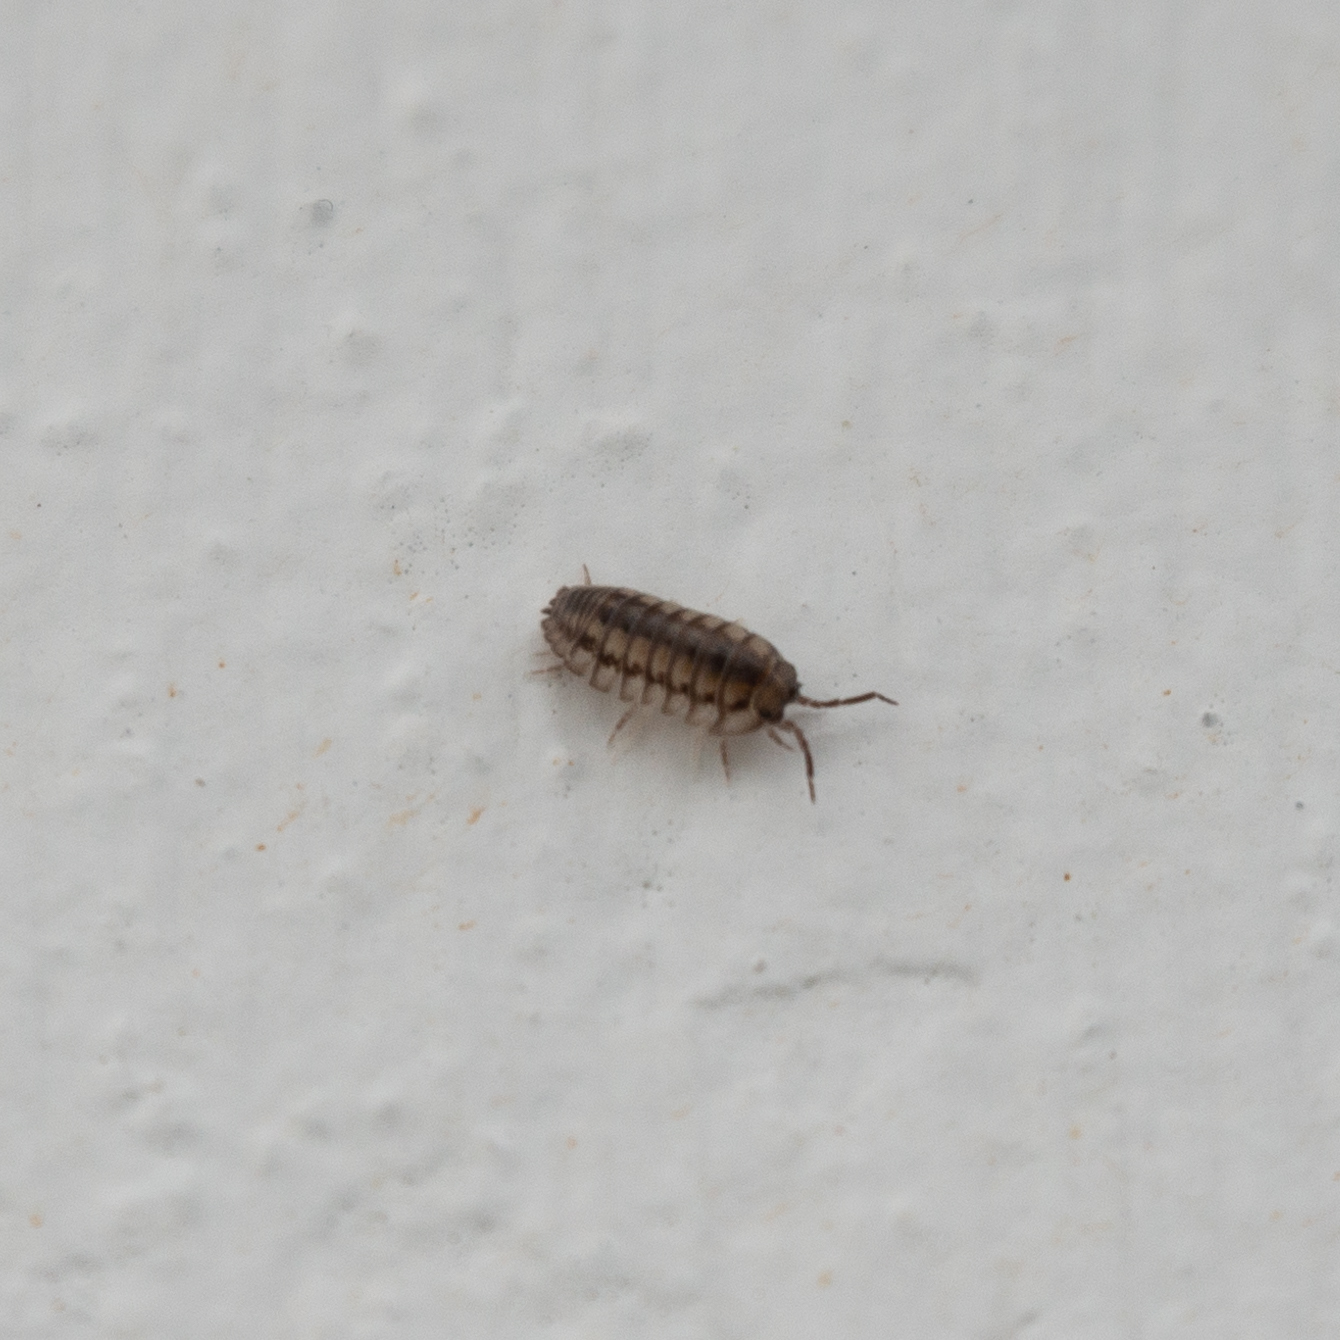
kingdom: Animalia
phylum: Arthropoda
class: Malacostraca
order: Isopoda
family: Armadillidiidae
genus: Armadillidium
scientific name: Armadillidium nasatum
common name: Isopod
